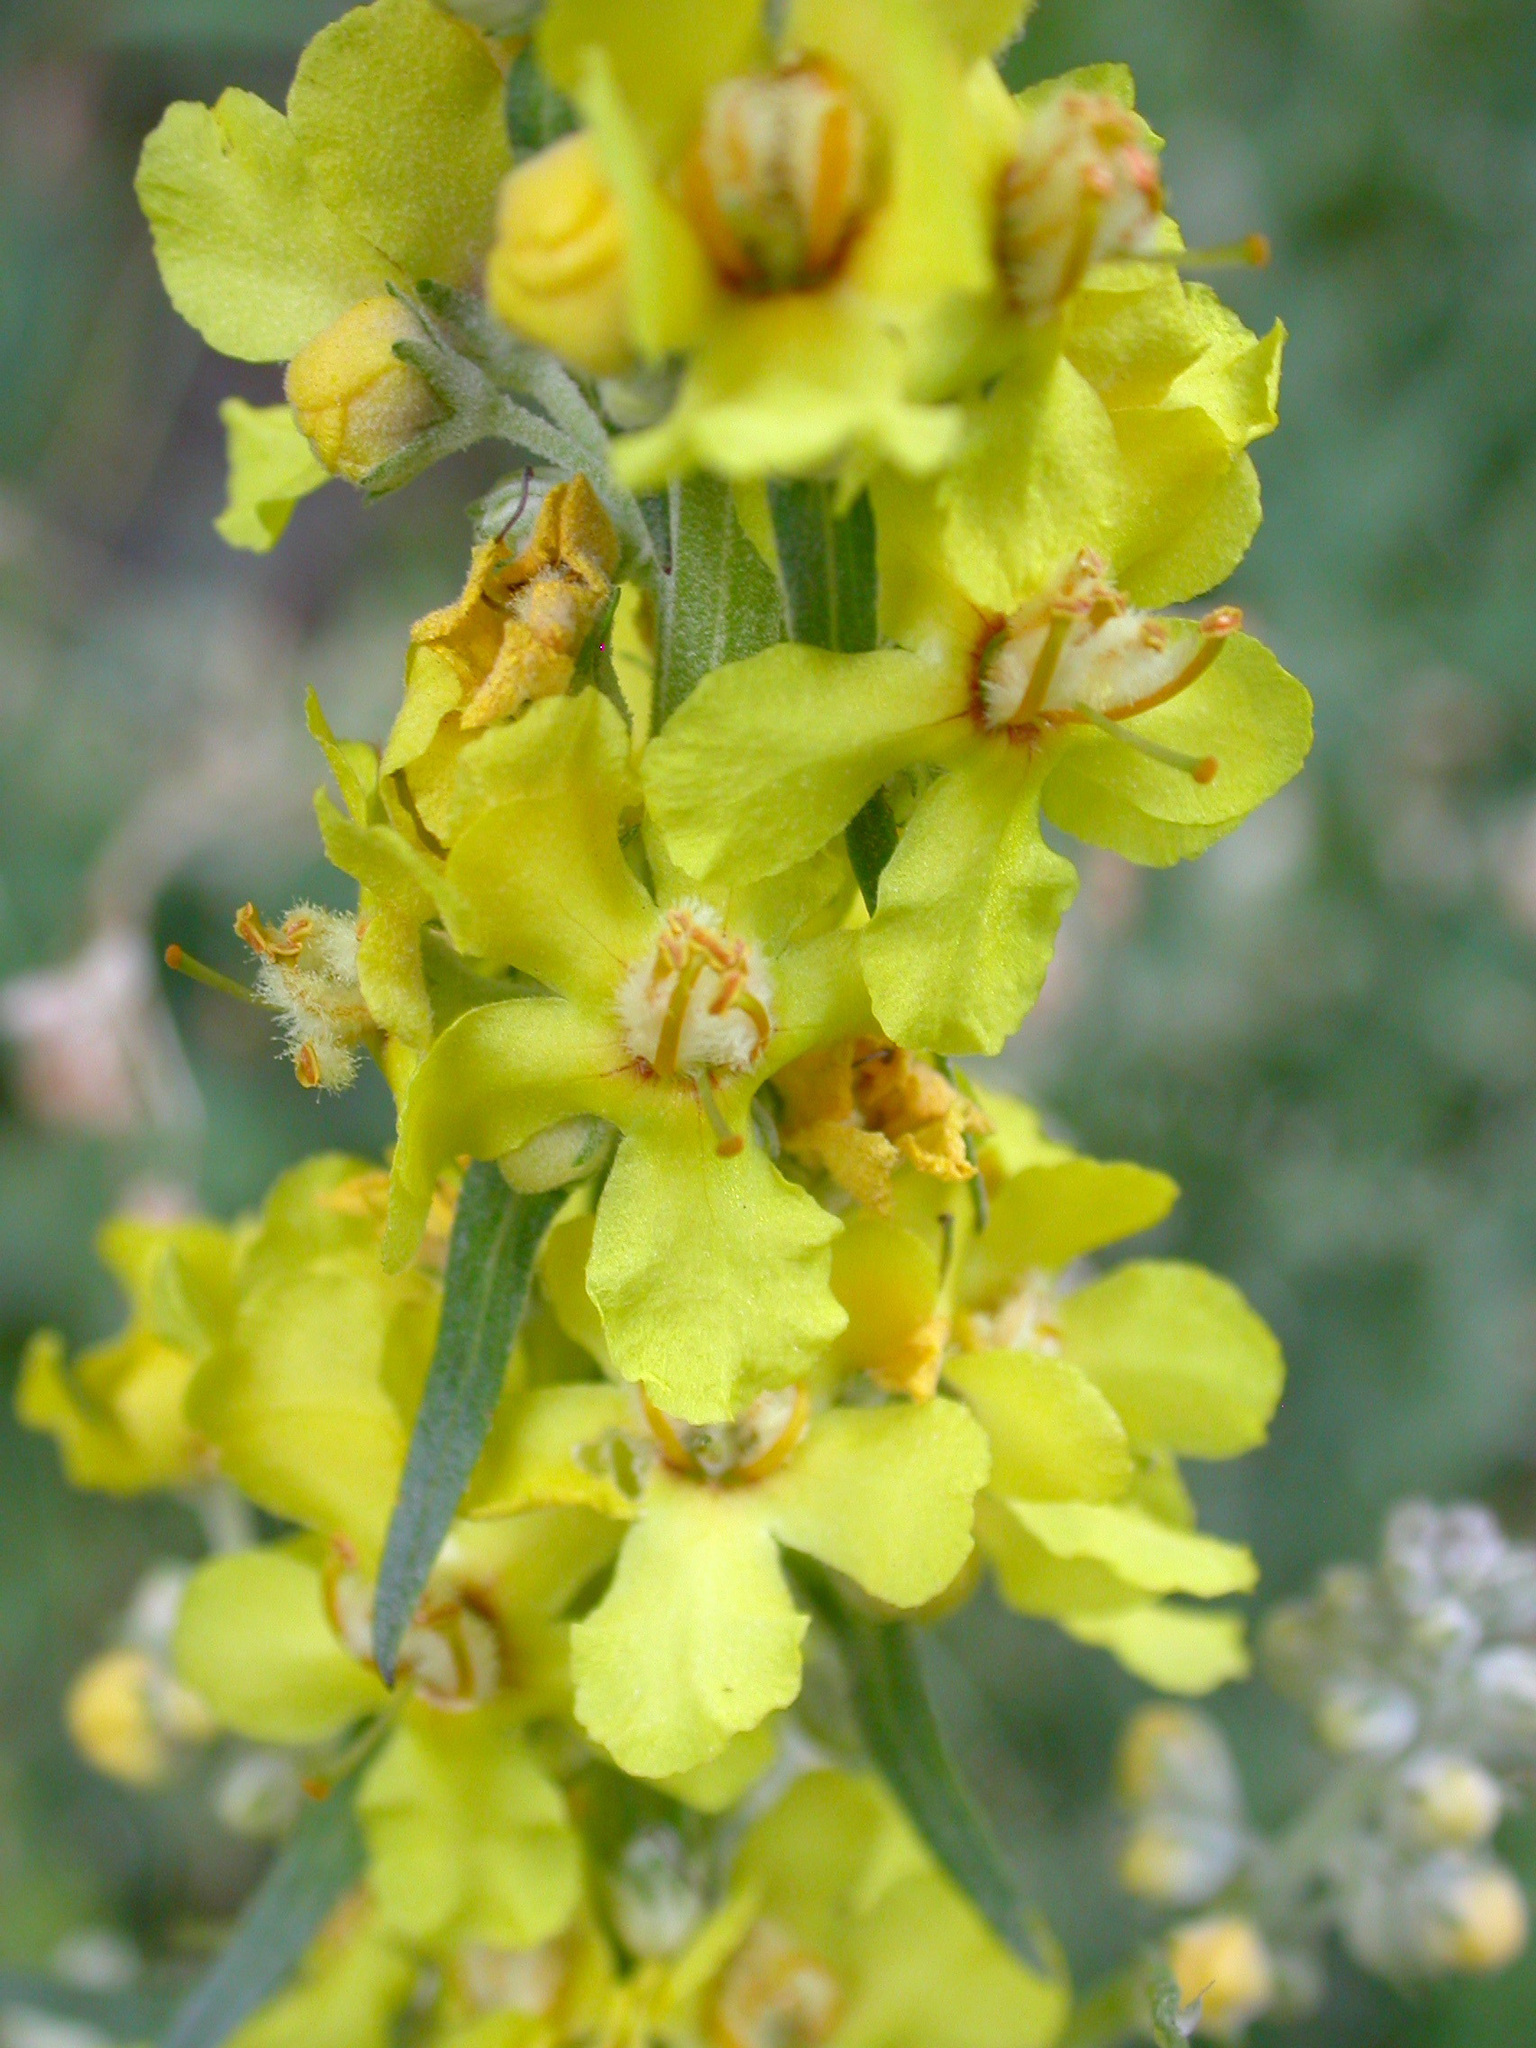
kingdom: Plantae
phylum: Tracheophyta
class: Magnoliopsida
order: Lamiales
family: Scrophulariaceae
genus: Verbascum
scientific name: Verbascum lychnitis
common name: White mullein
